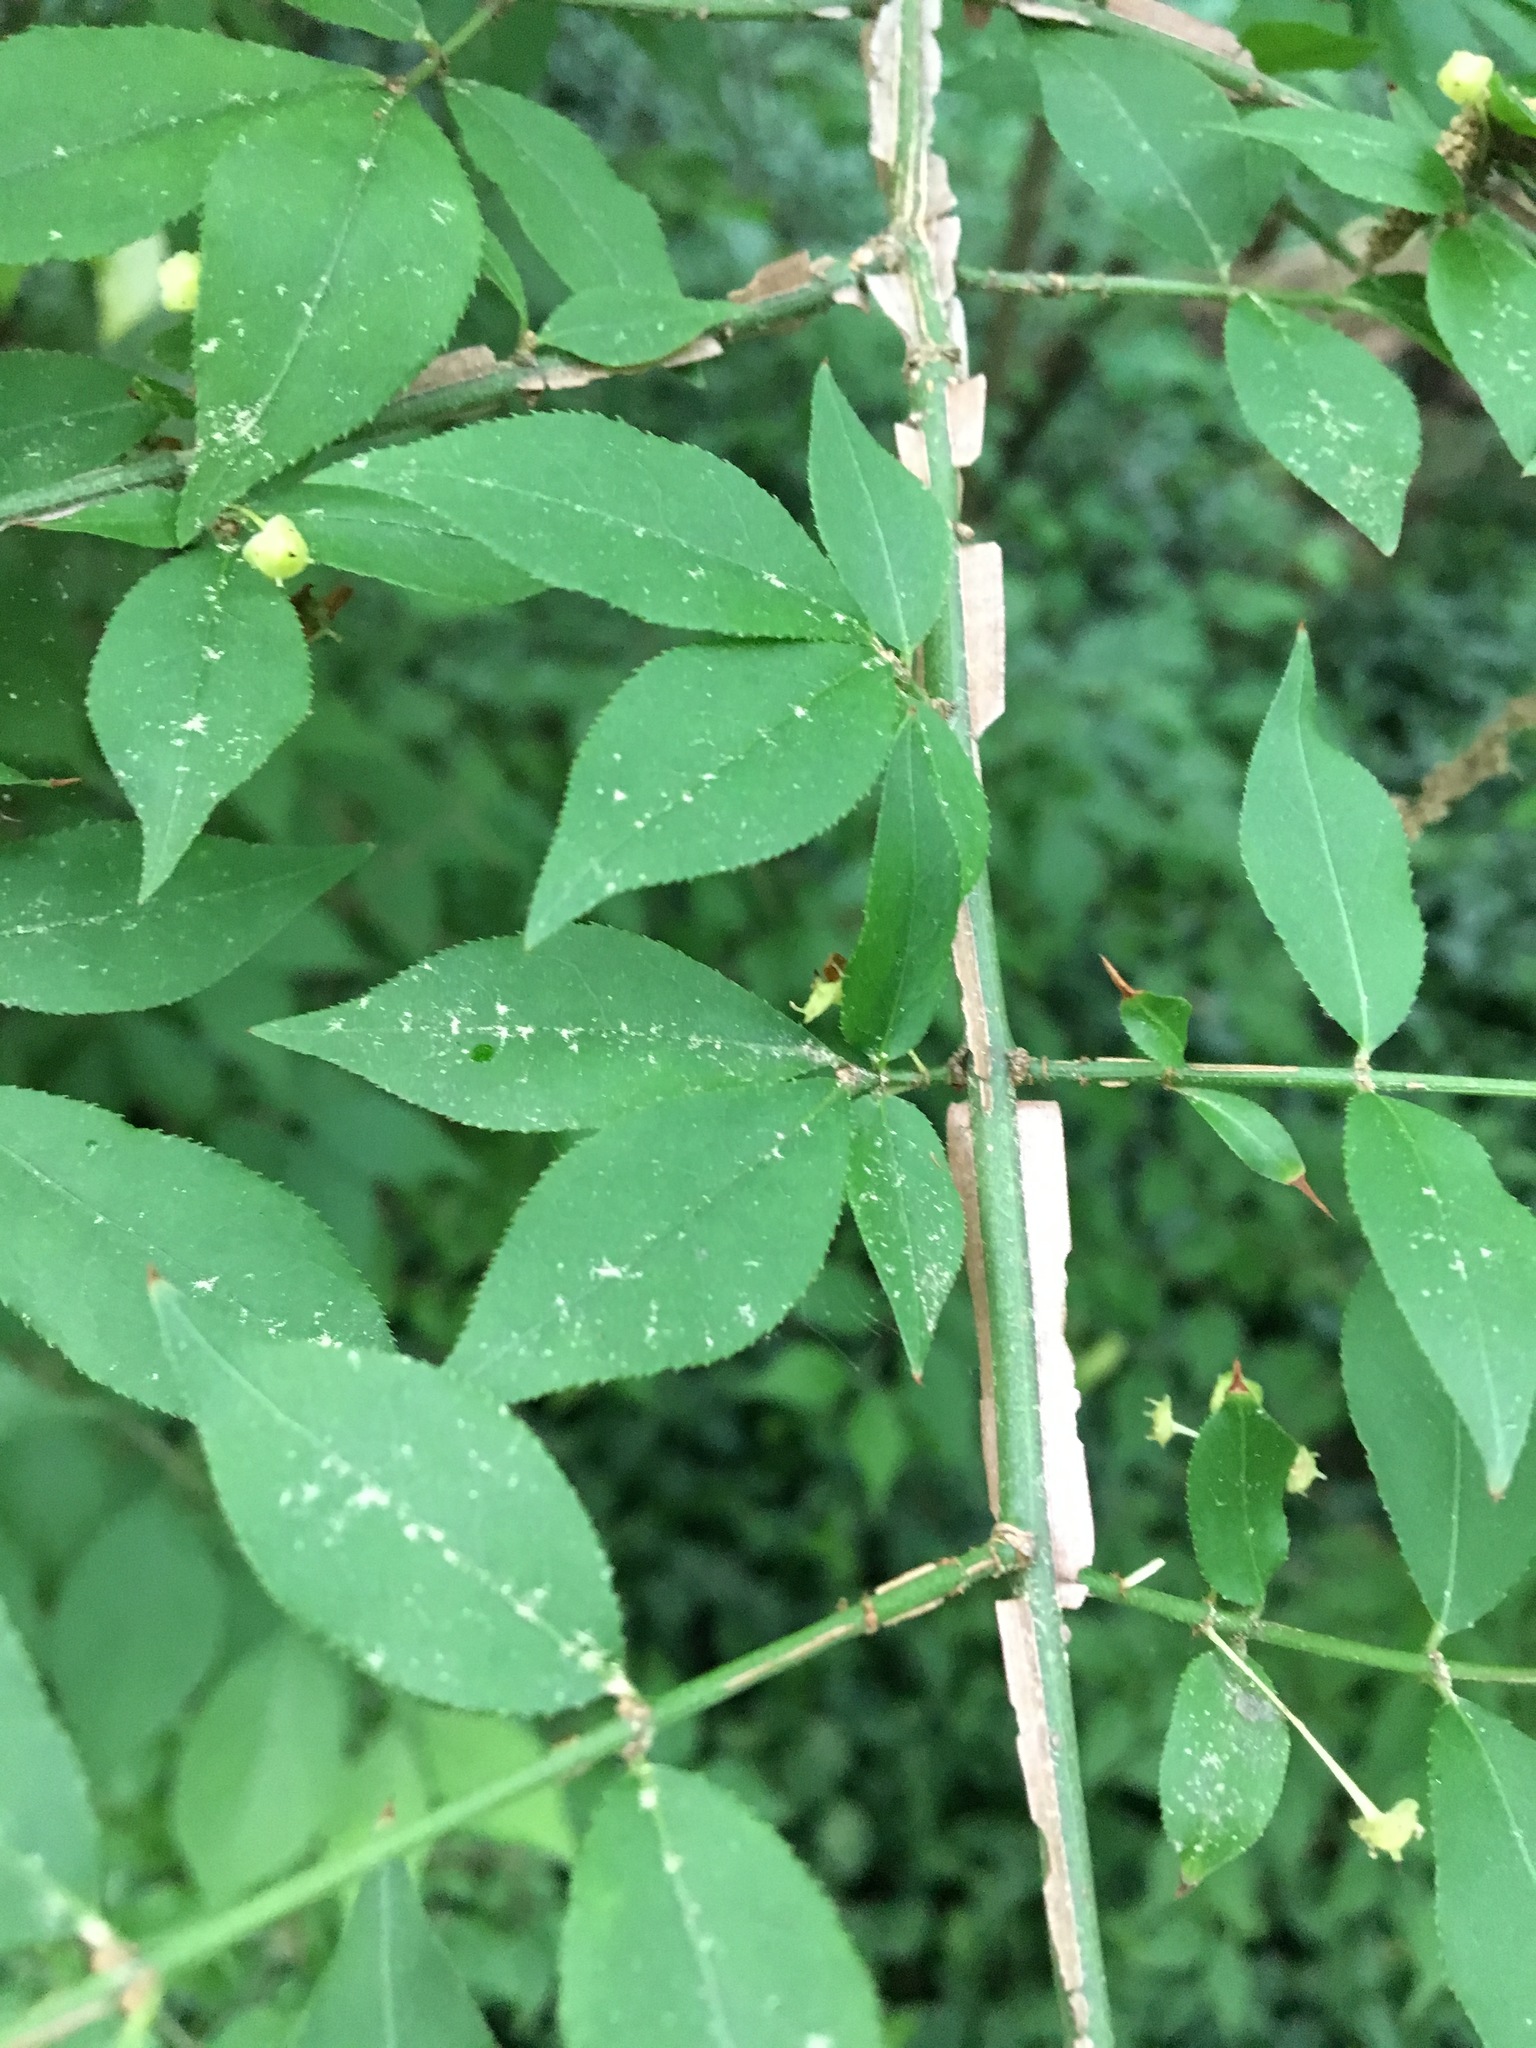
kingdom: Plantae
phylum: Tracheophyta
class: Magnoliopsida
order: Celastrales
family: Celastraceae
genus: Euonymus
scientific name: Euonymus alatus
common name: Winged euonymus
